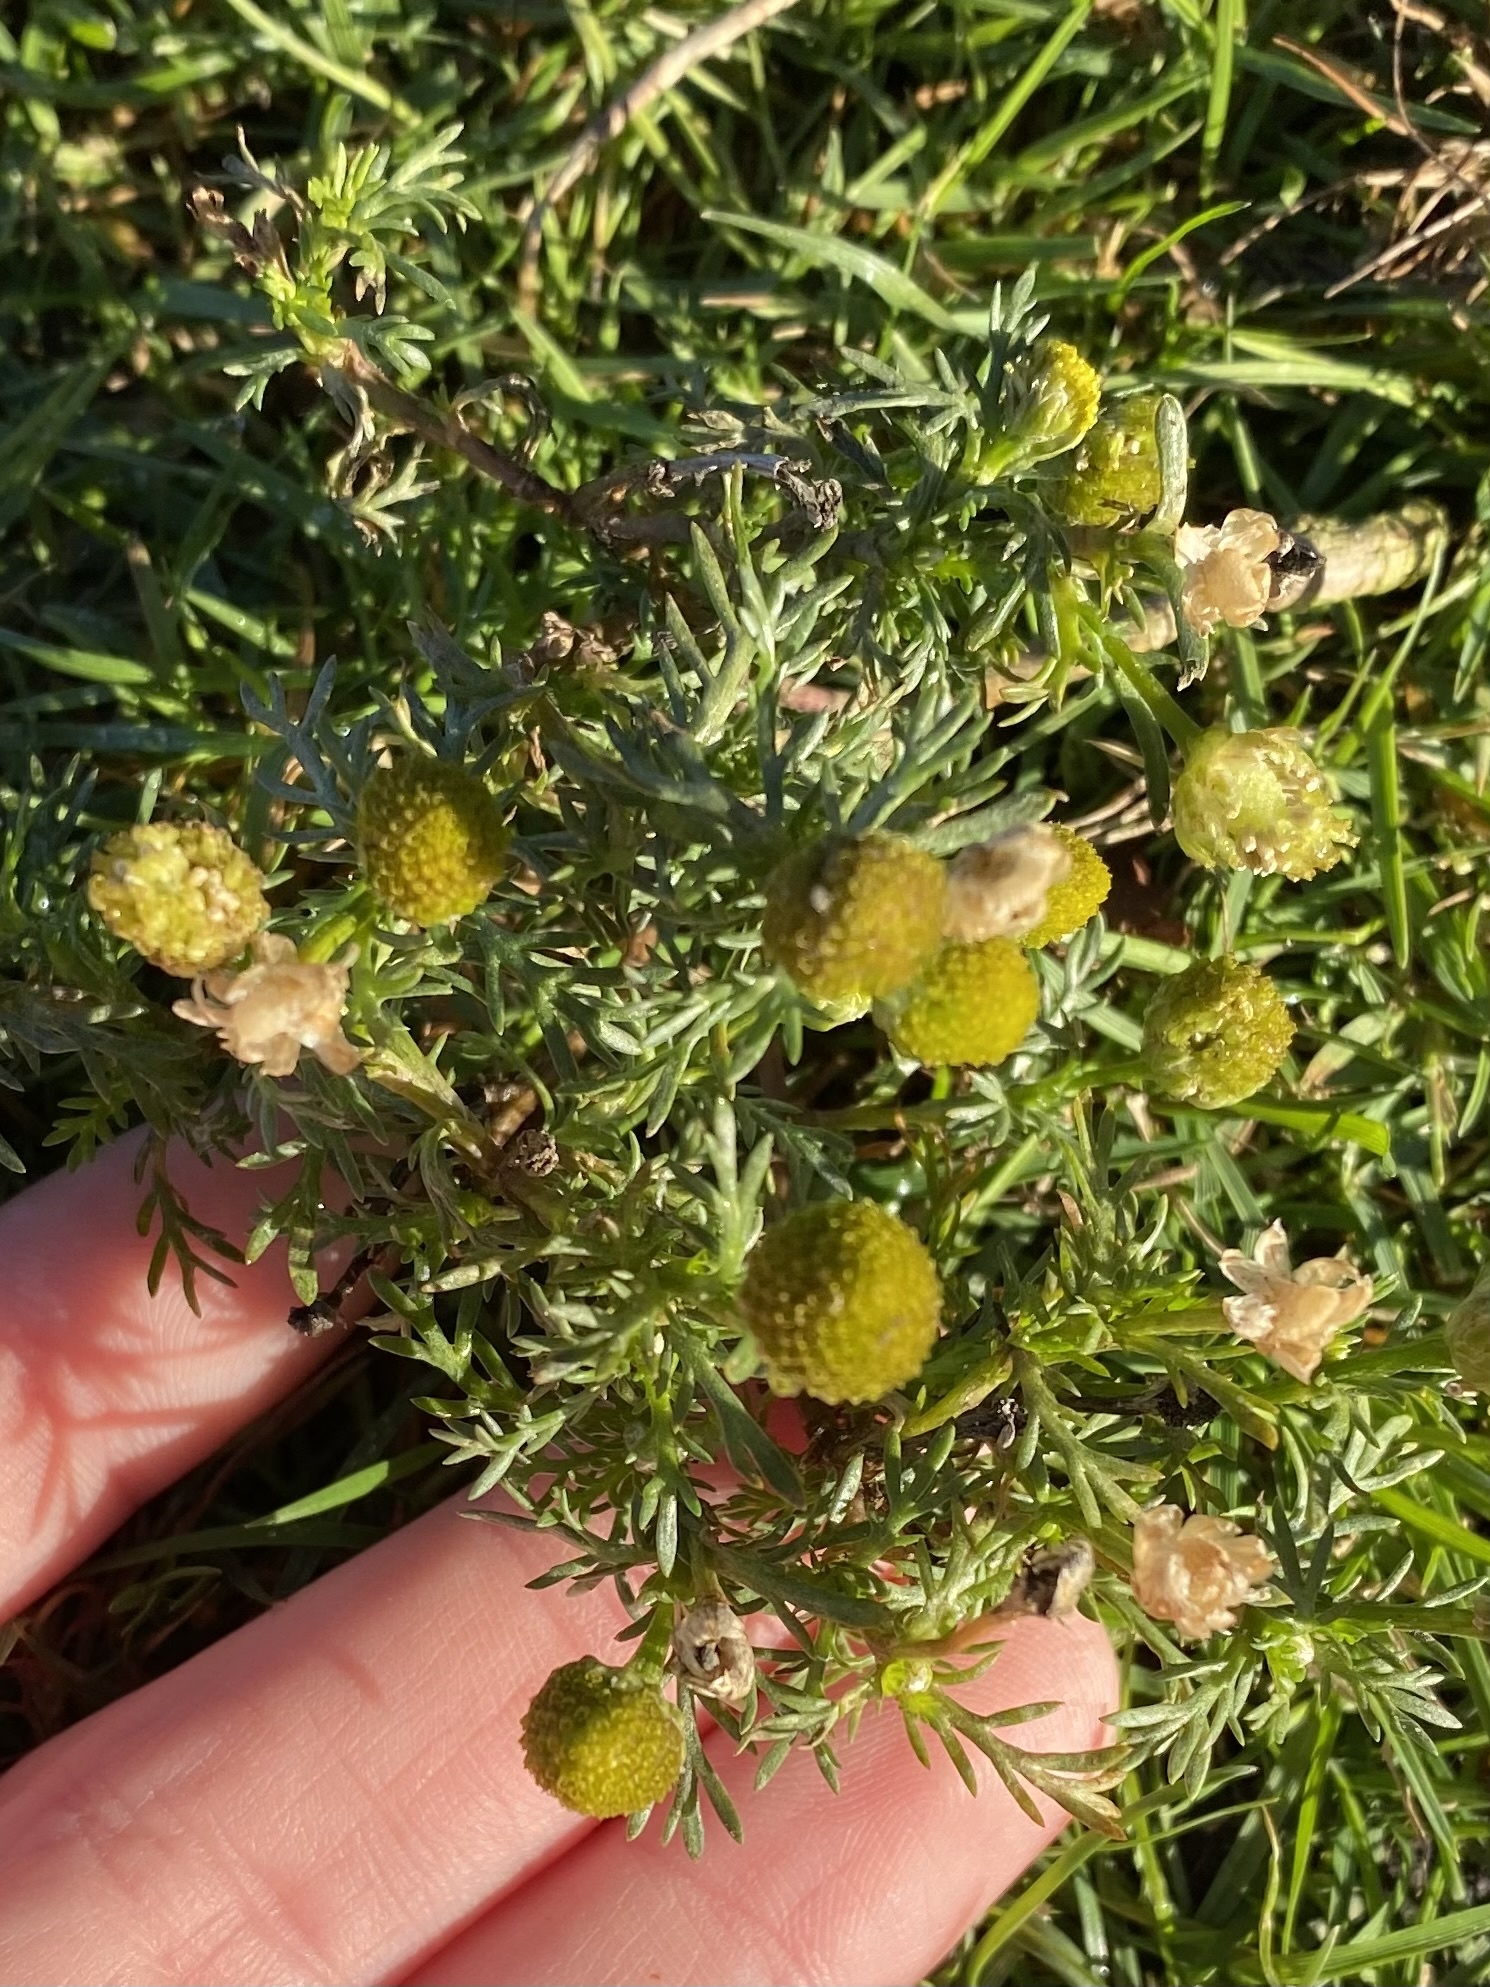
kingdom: Plantae
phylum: Tracheophyta
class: Magnoliopsida
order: Asterales
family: Asteraceae
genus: Matricaria
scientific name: Matricaria discoidea
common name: Disc mayweed
